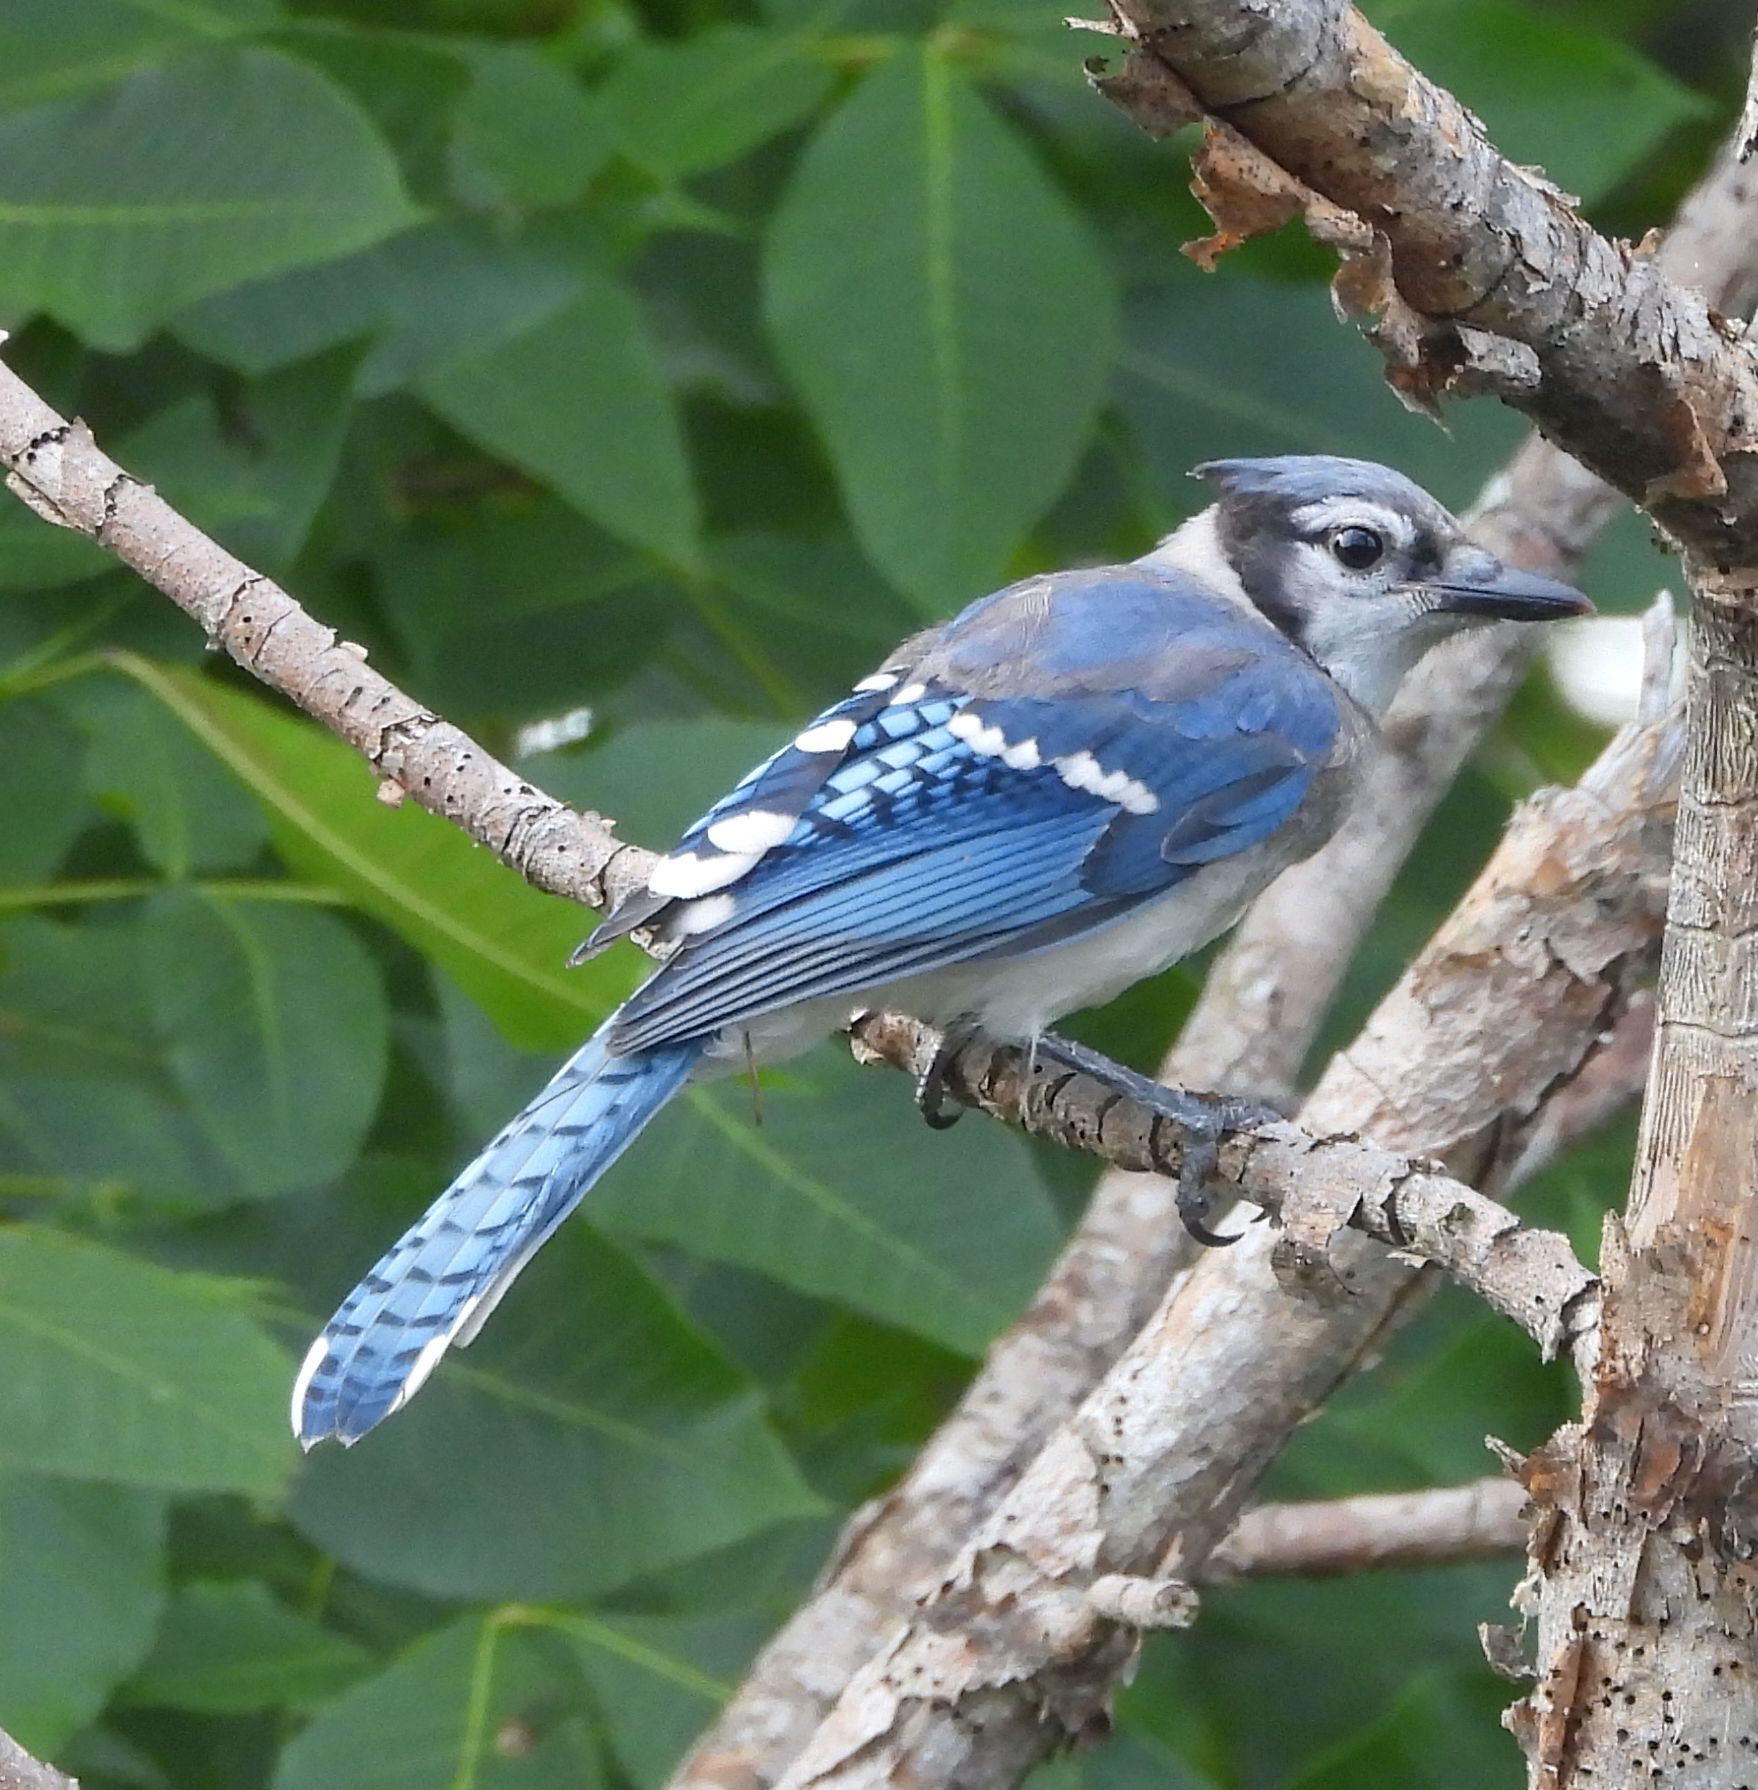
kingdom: Animalia
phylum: Chordata
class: Aves
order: Passeriformes
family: Corvidae
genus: Cyanocitta
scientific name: Cyanocitta cristata
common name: Blue jay
